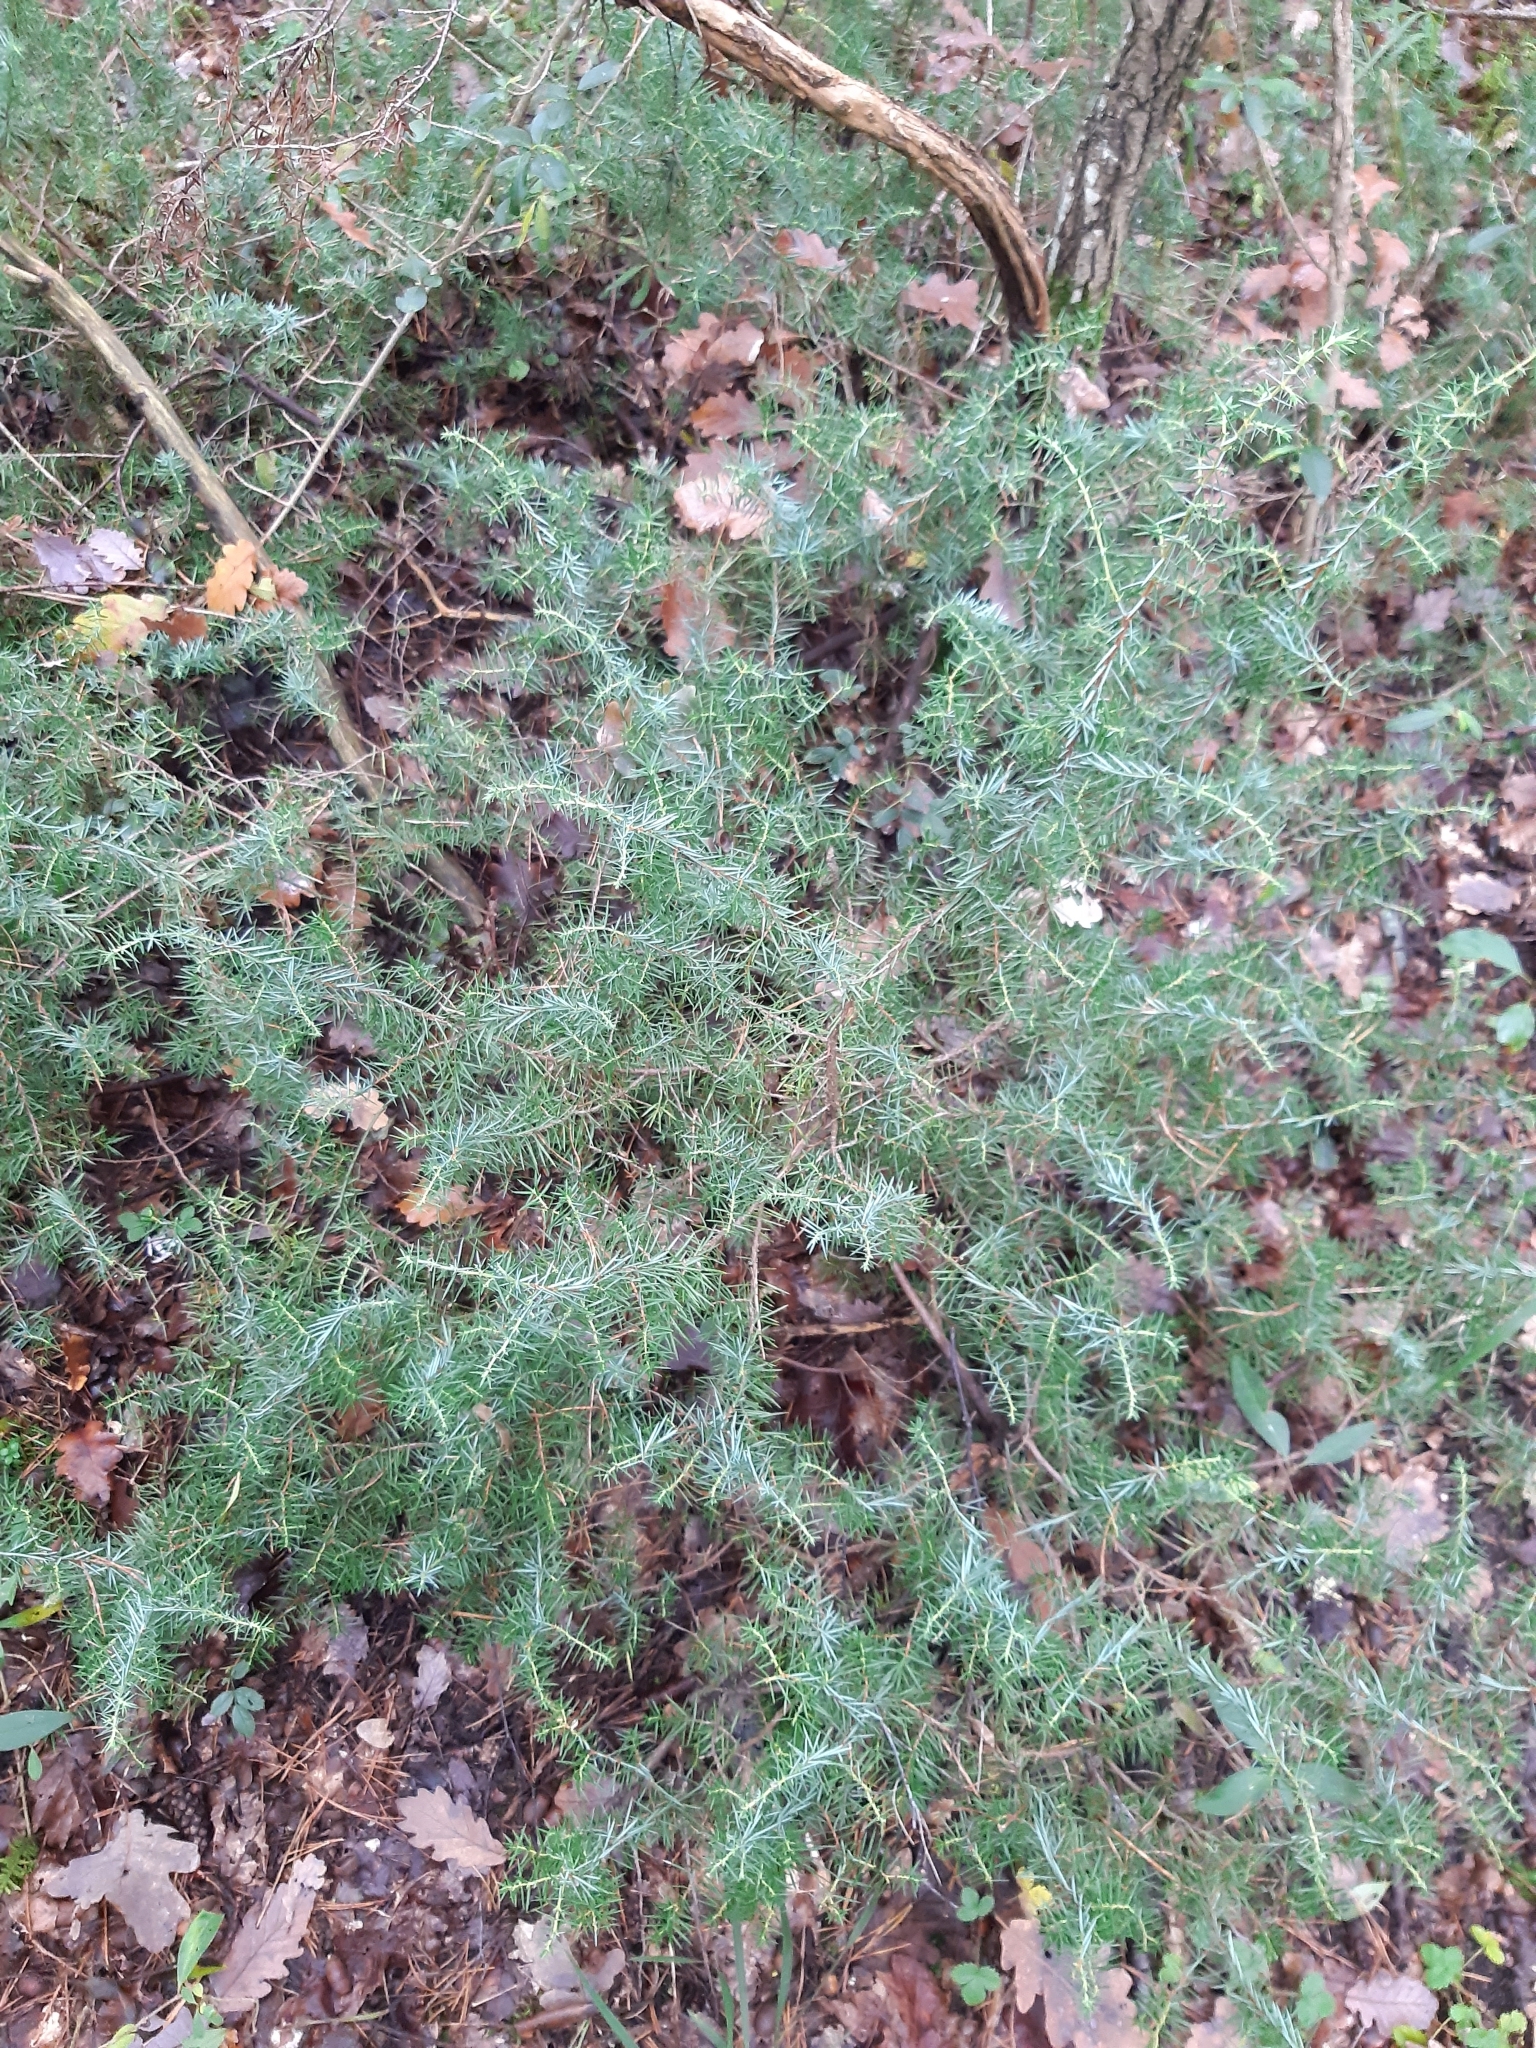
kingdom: Plantae
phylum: Tracheophyta
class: Pinopsida
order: Pinales
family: Cupressaceae
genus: Juniperus
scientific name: Juniperus communis
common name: Common juniper
